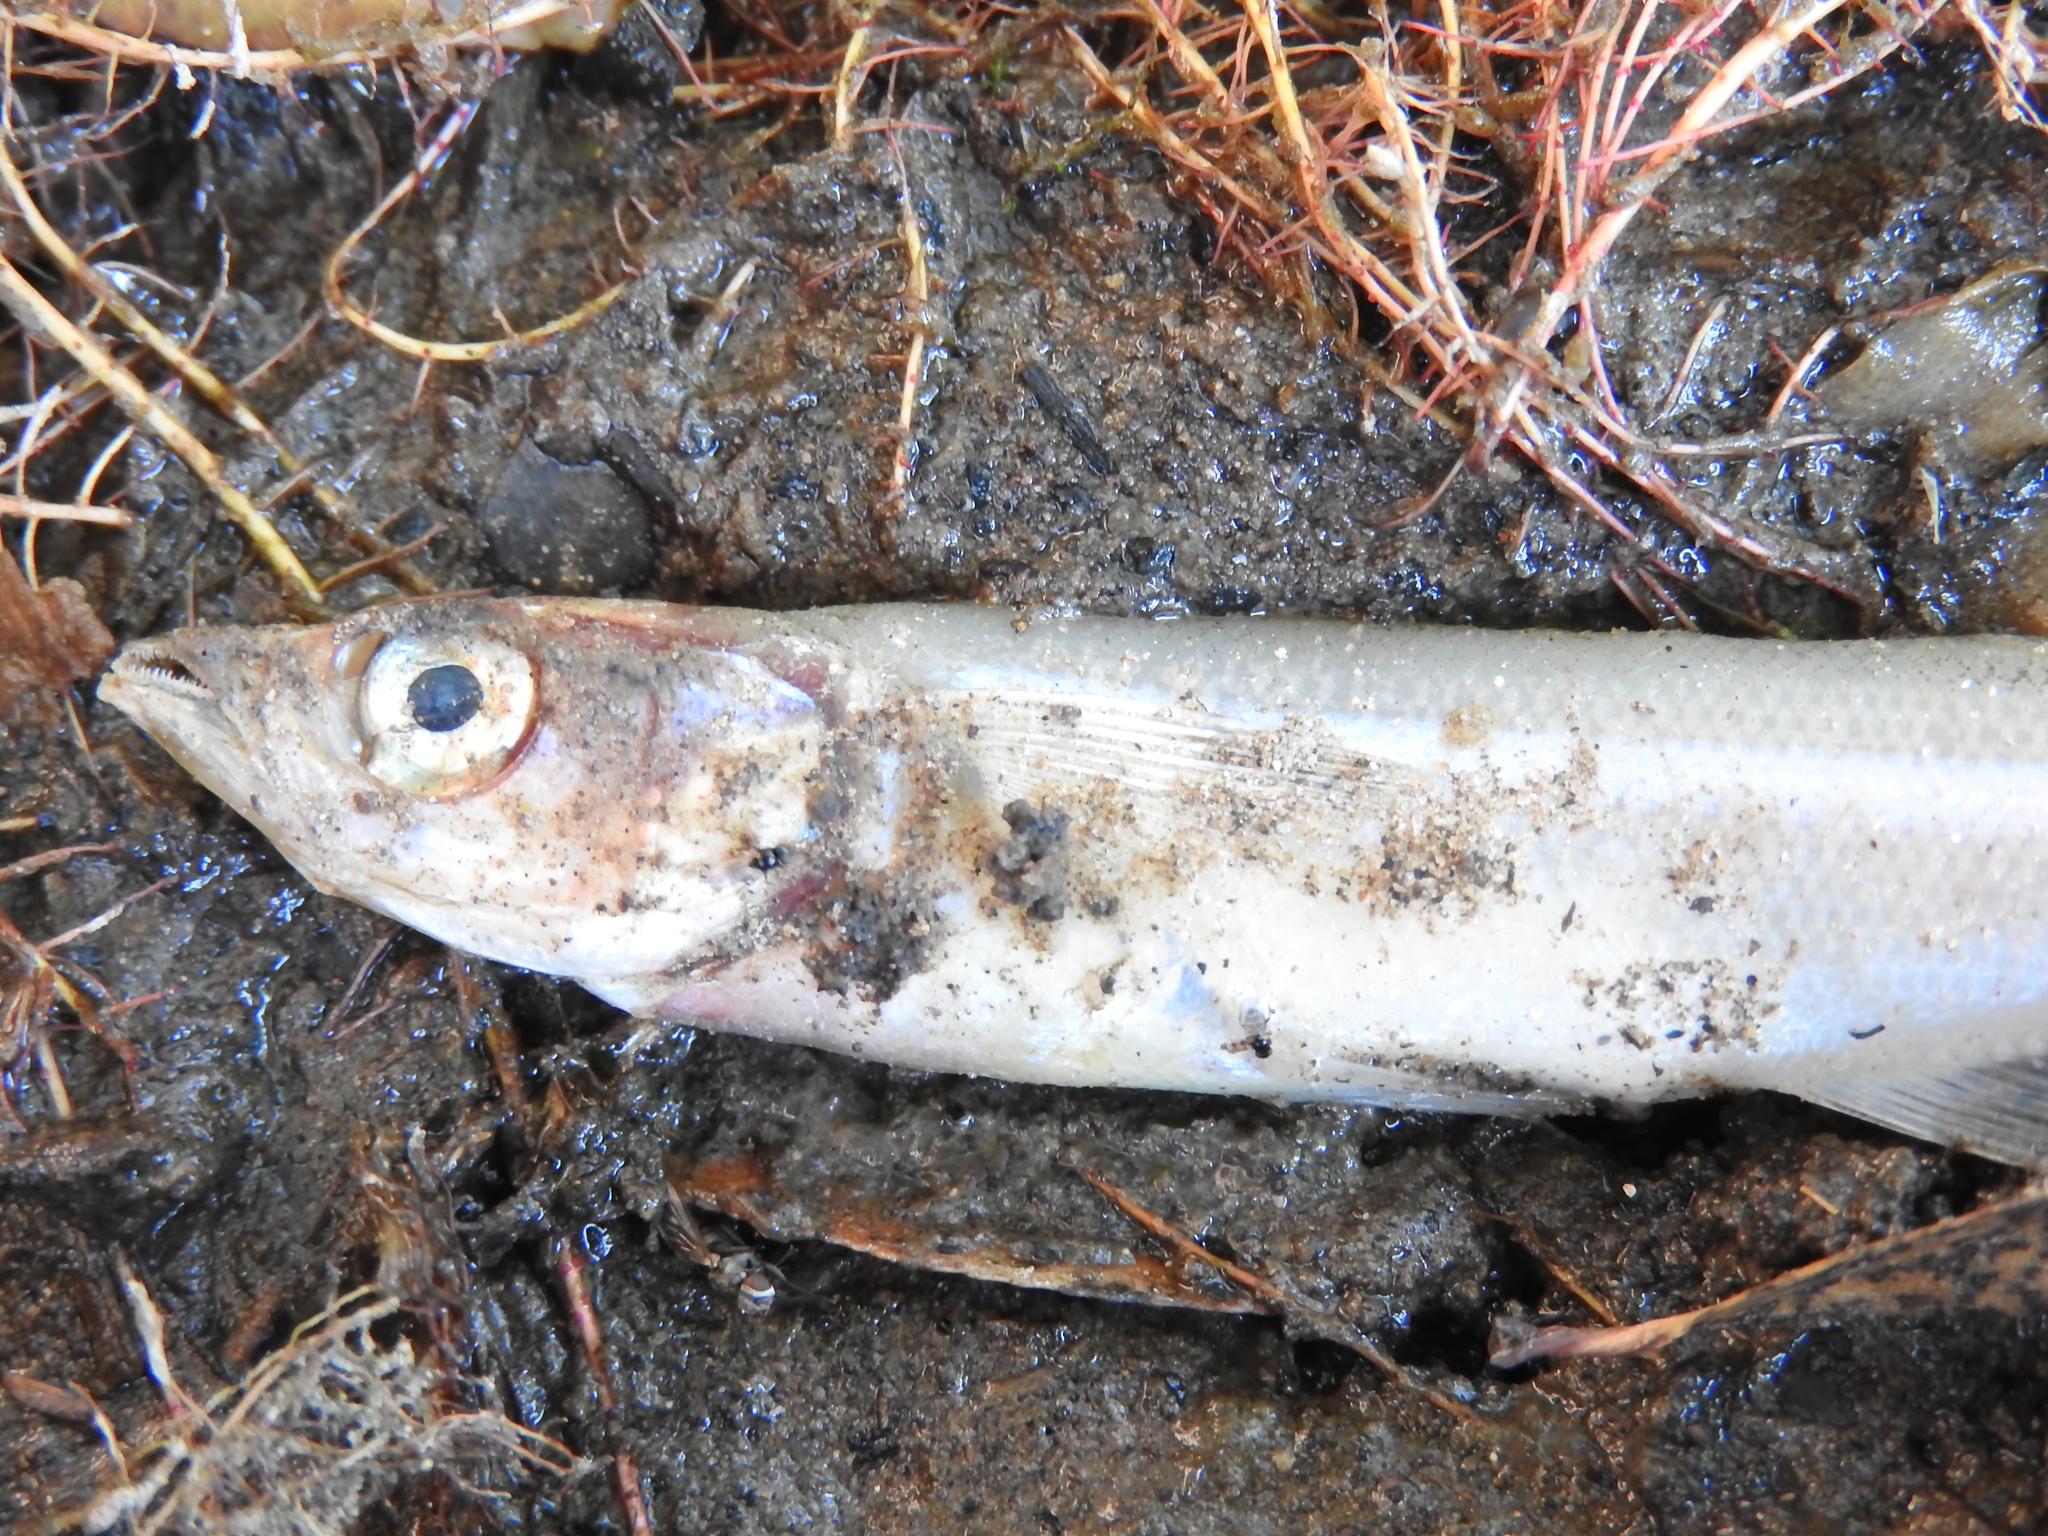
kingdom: Animalia
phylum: Chordata
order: Atheriniformes
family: Atherinopsidae
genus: Chirostoma
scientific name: Chirostoma humboldtianum
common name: Shortfin silverside
